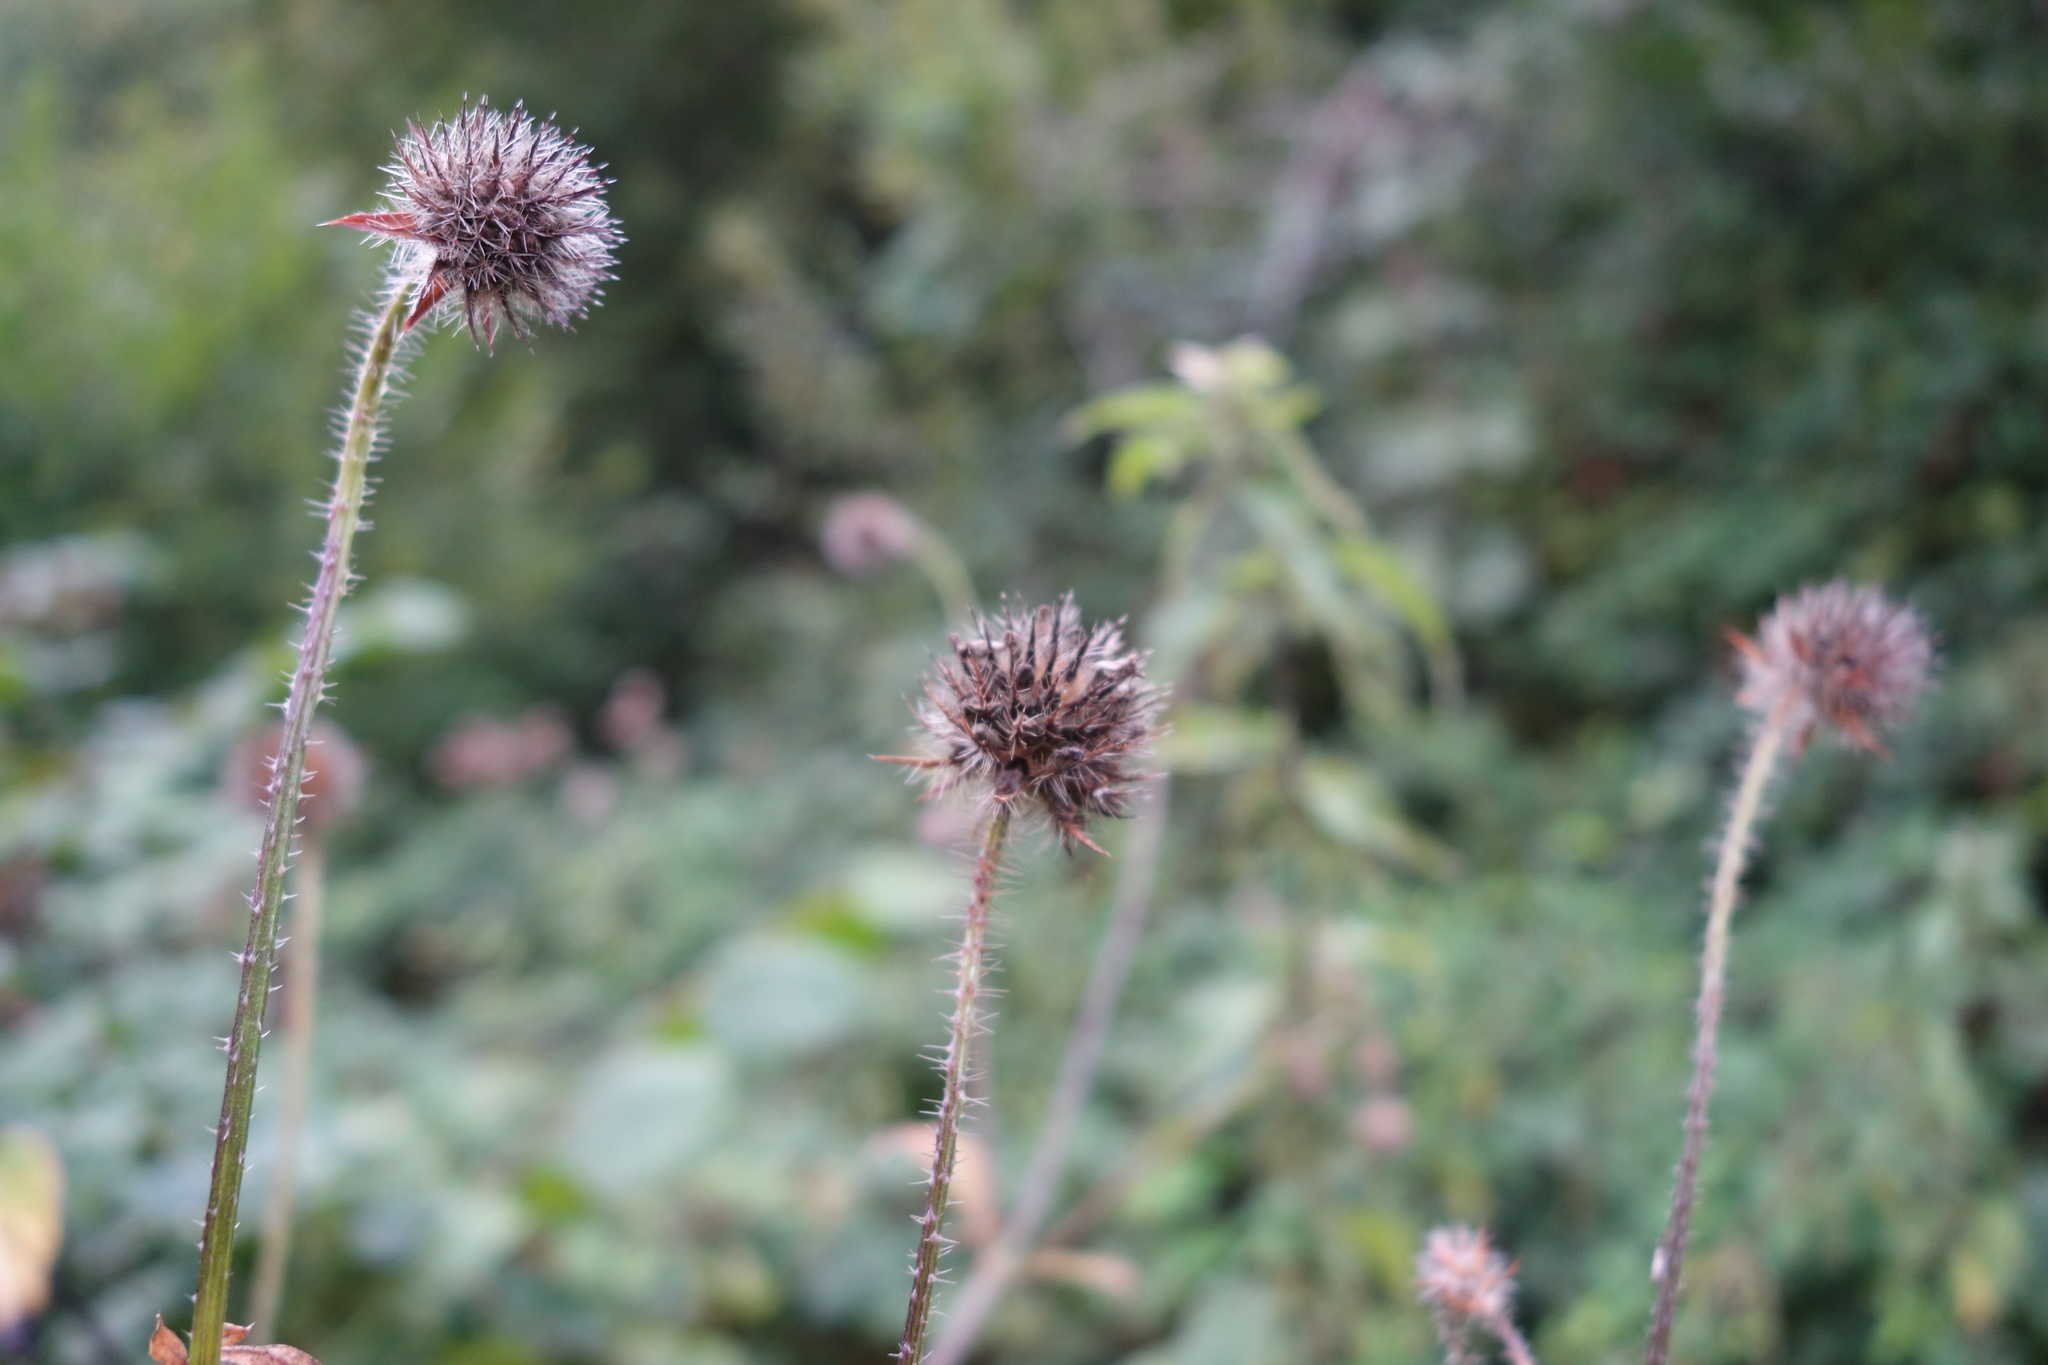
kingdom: Plantae
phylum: Tracheophyta
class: Magnoliopsida
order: Dipsacales
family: Caprifoliaceae
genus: Dipsacus
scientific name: Dipsacus pilosus
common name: Small teasel
